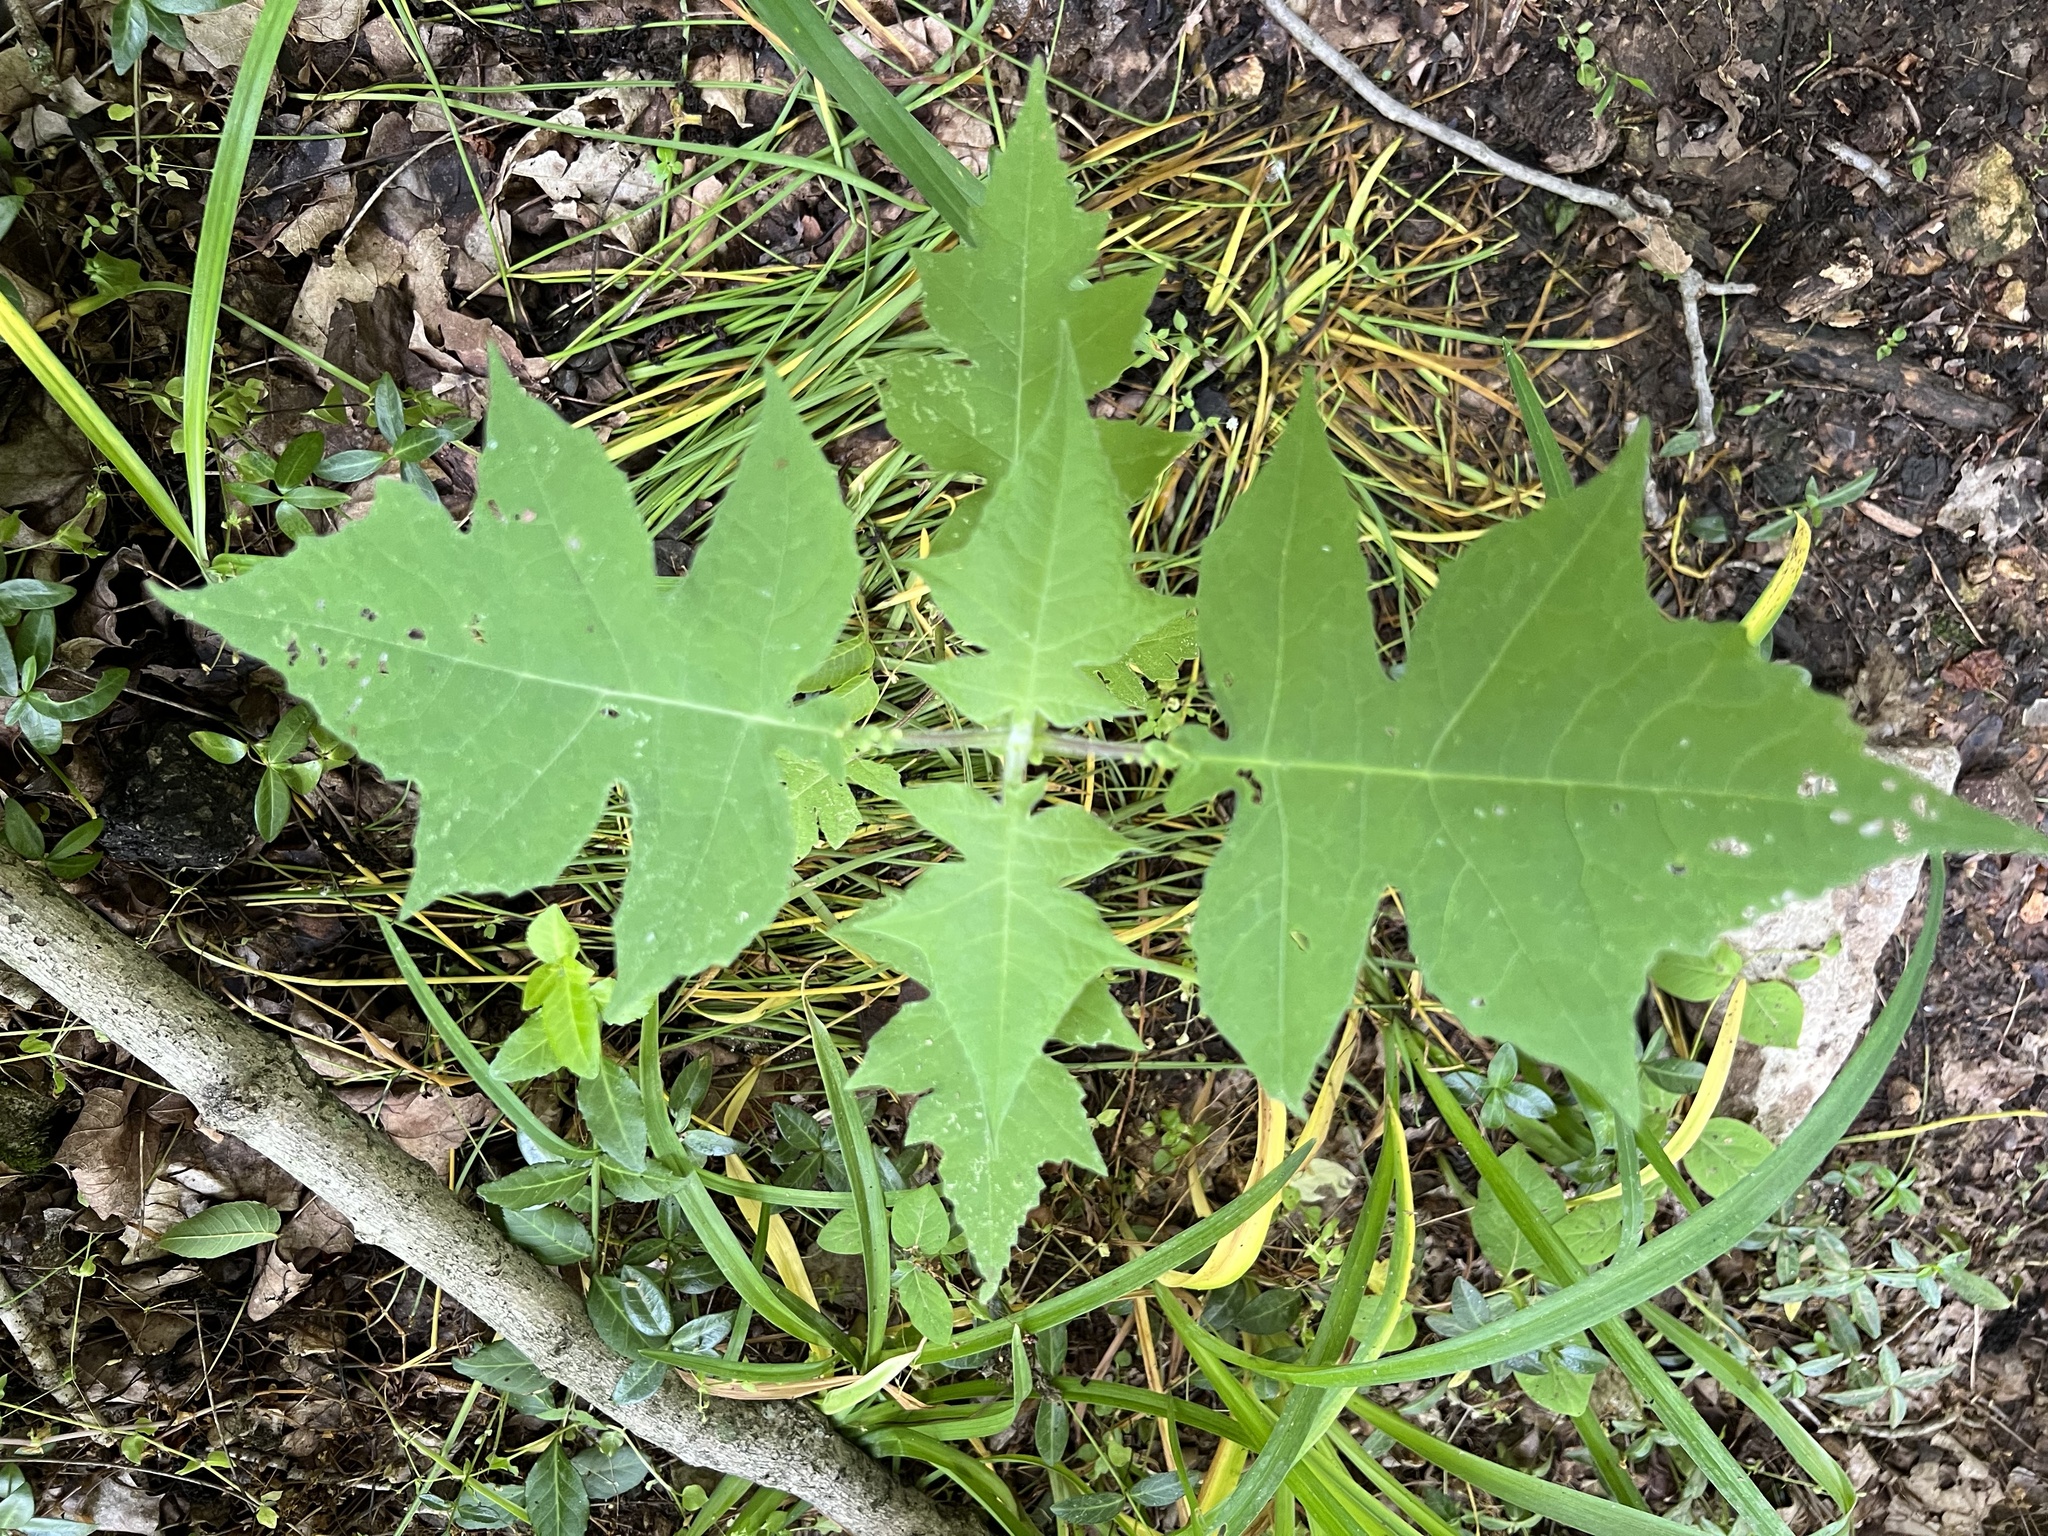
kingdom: Plantae
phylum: Tracheophyta
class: Magnoliopsida
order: Asterales
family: Asteraceae
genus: Polymnia
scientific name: Polymnia canadensis
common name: Pale-flowered leafcup
